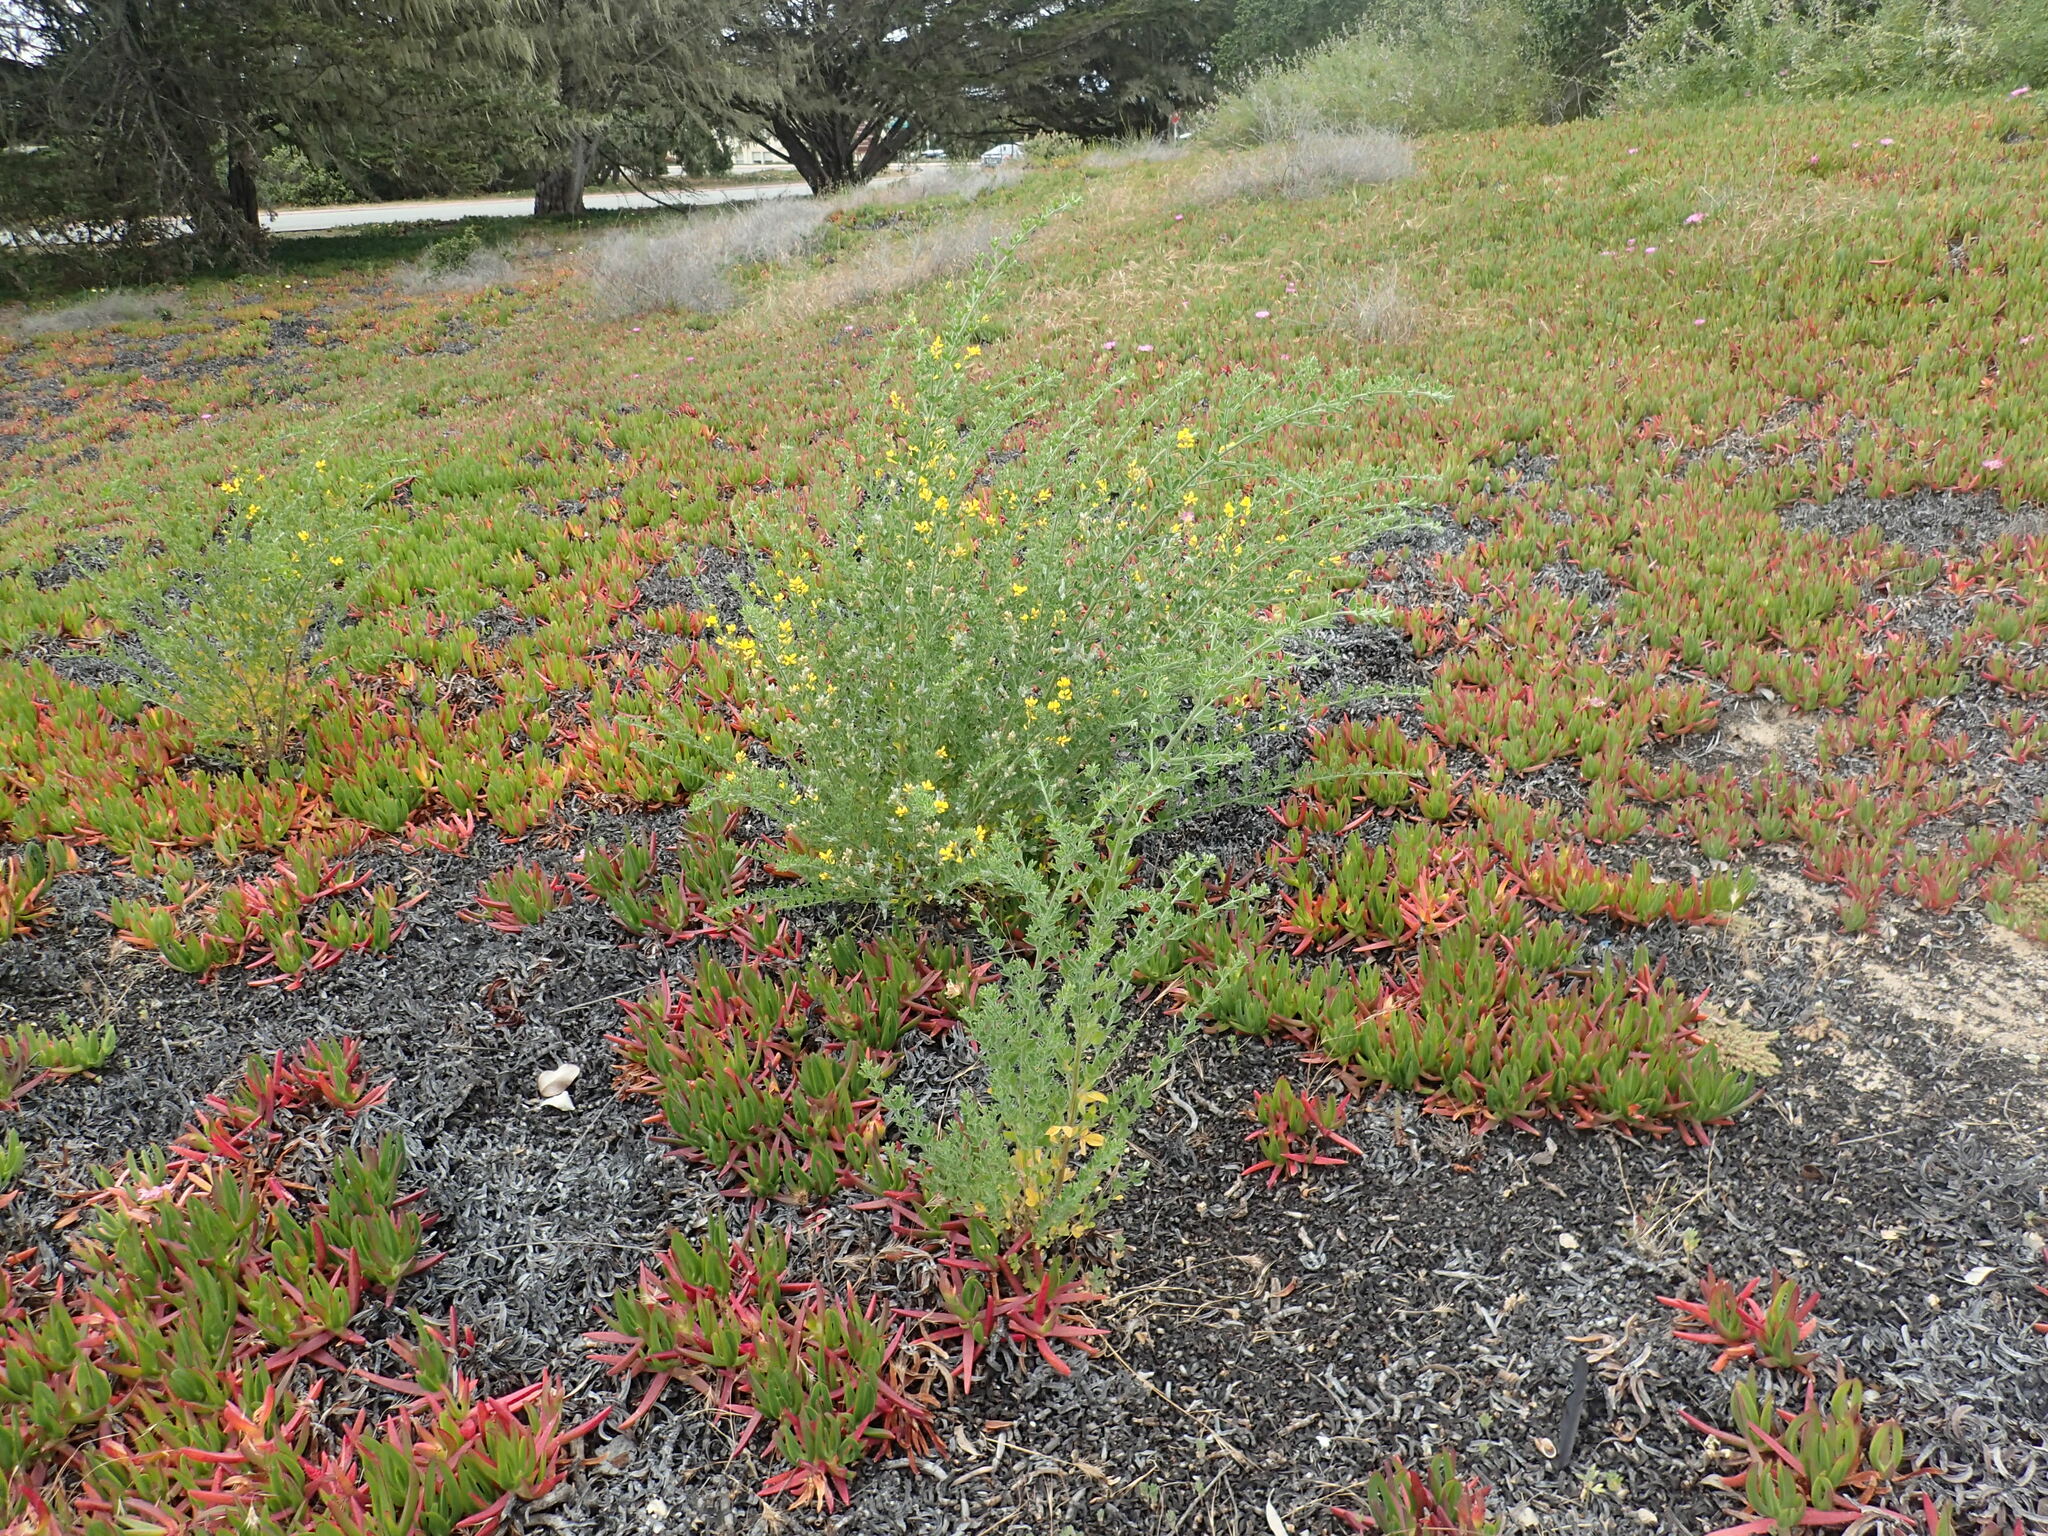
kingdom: Plantae
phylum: Tracheophyta
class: Magnoliopsida
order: Fabales
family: Fabaceae
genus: Genista
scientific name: Genista monspessulana
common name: Montpellier broom
